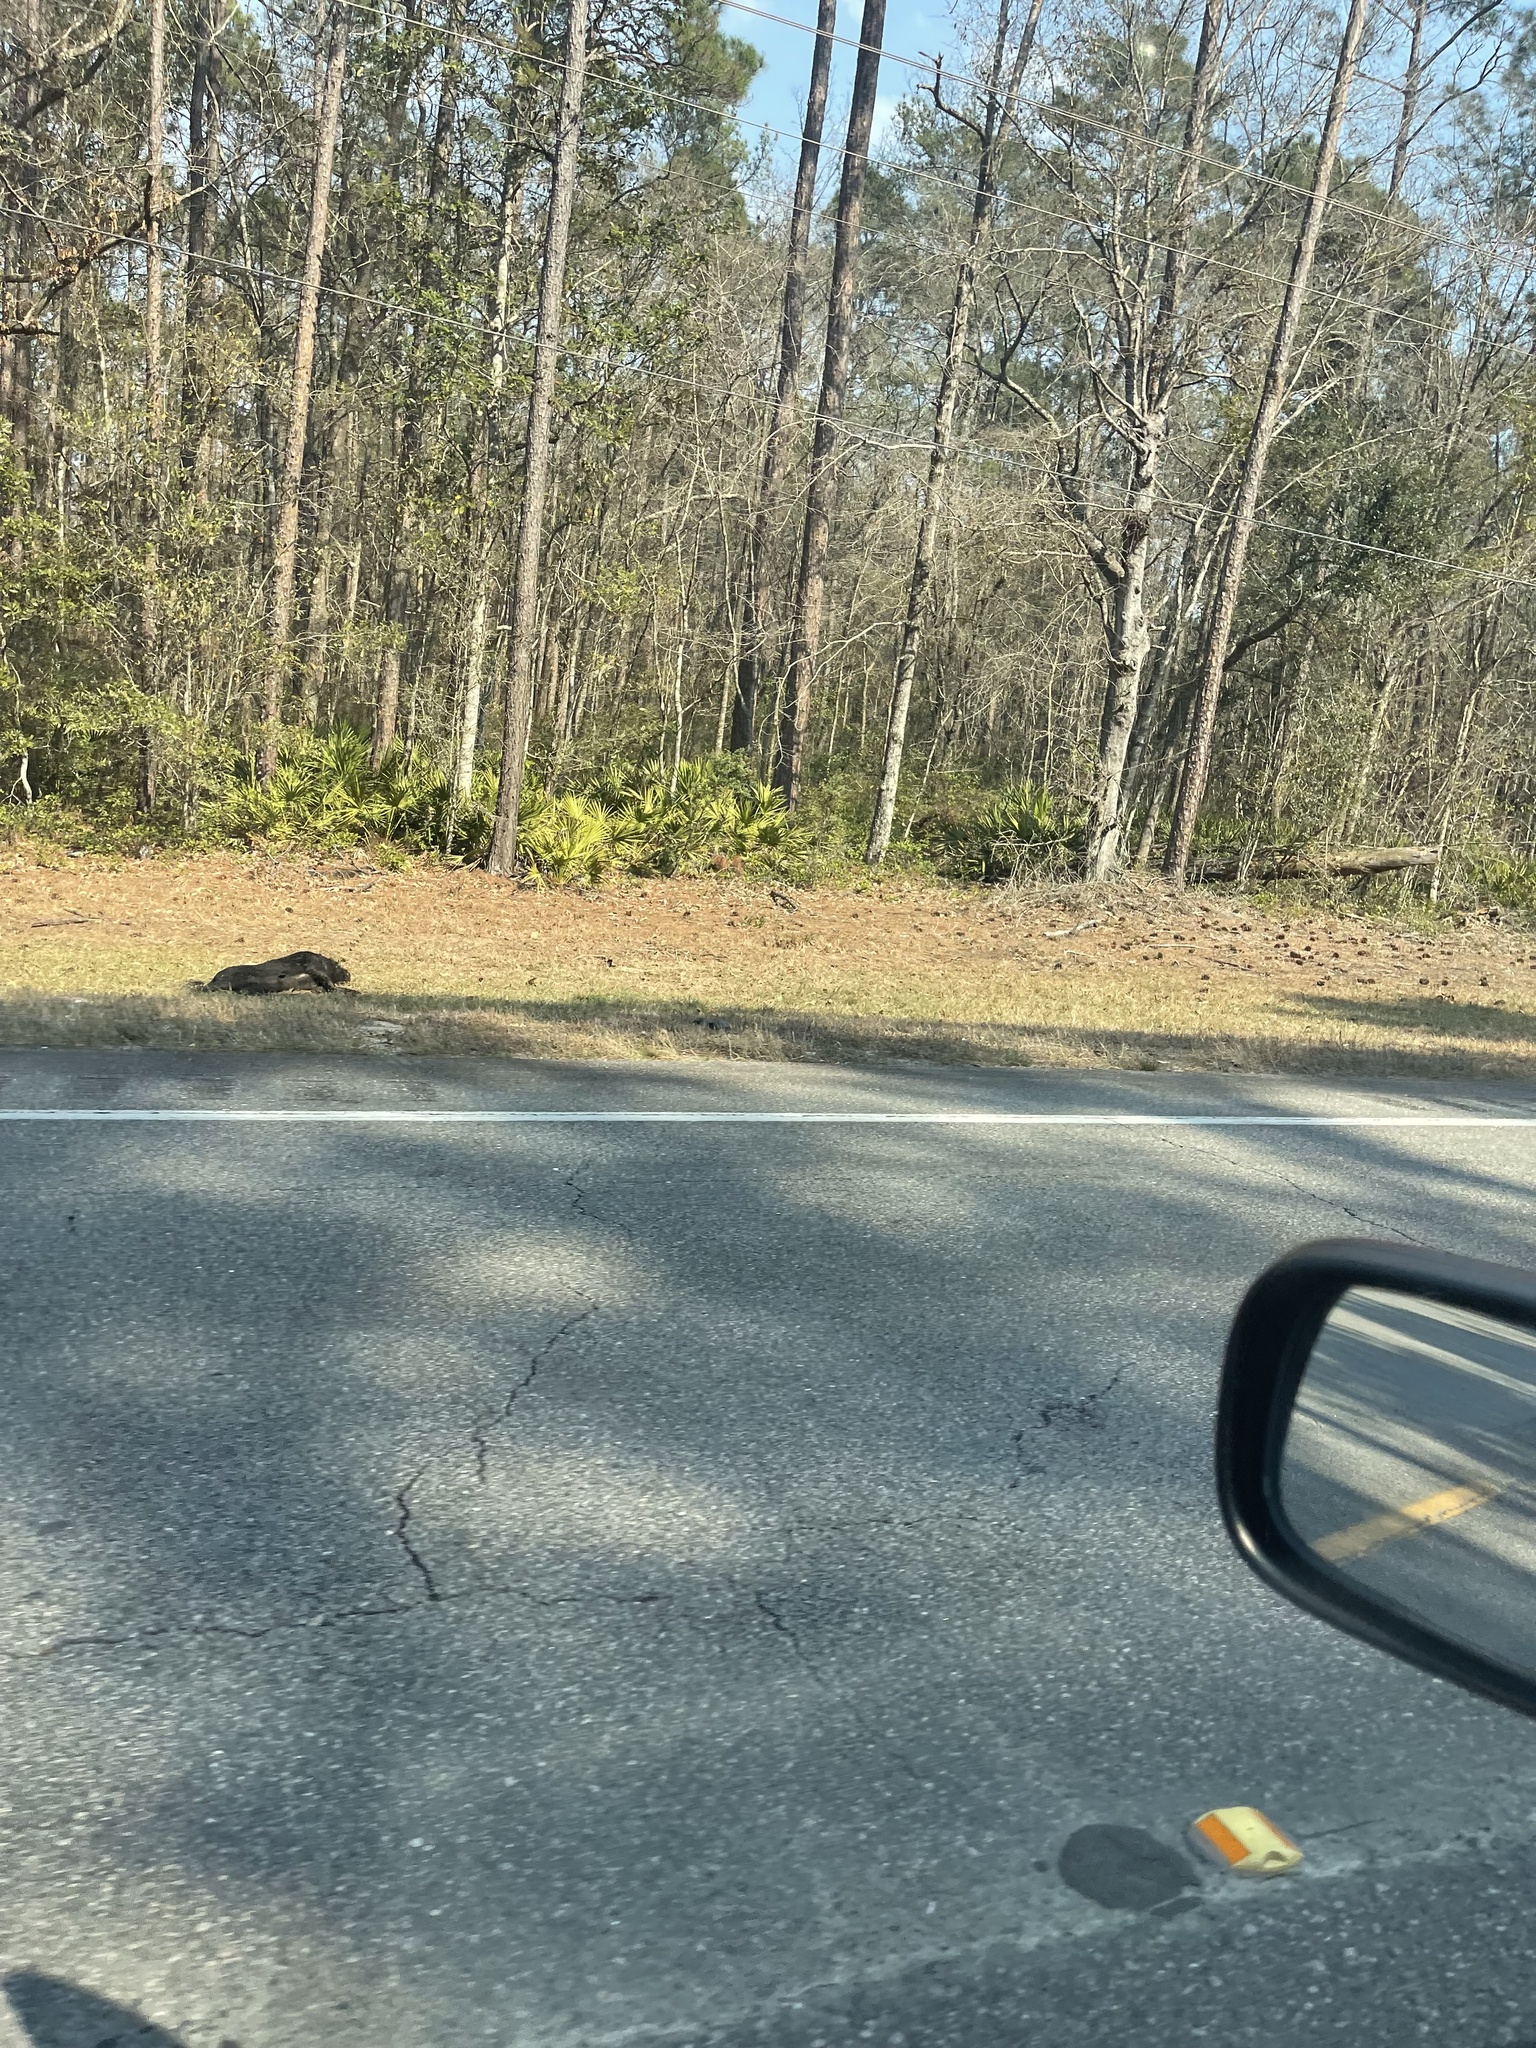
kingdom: Animalia
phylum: Chordata
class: Mammalia
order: Artiodactyla
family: Suidae
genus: Sus
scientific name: Sus scrofa
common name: Wild boar
